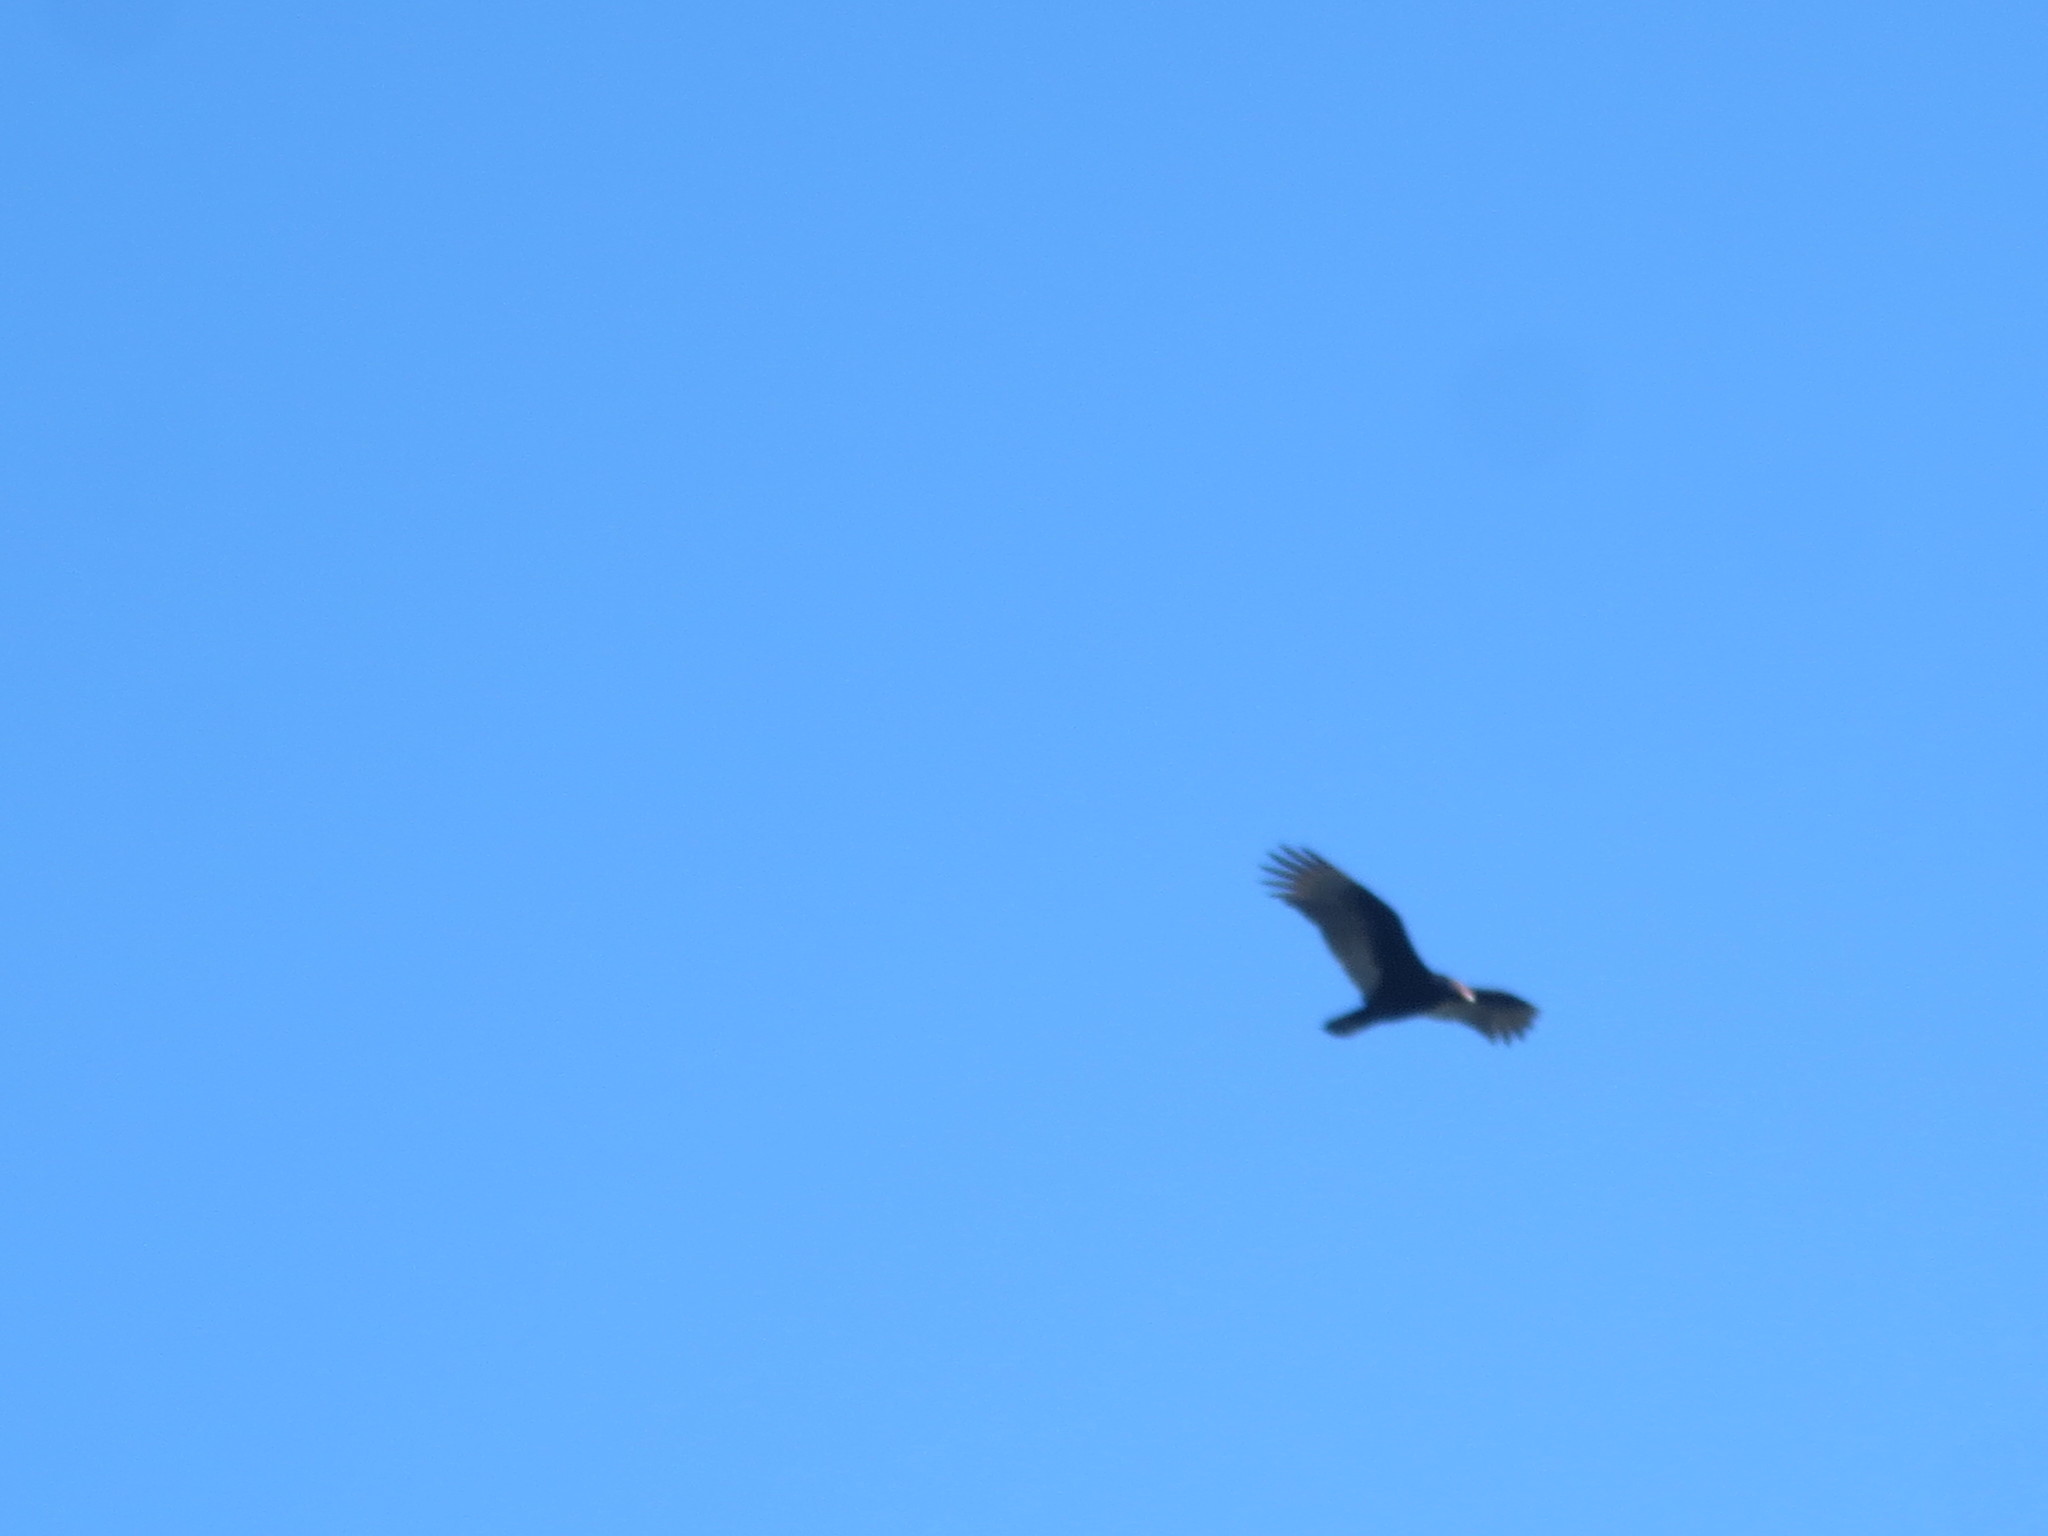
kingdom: Animalia
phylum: Chordata
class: Aves
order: Accipitriformes
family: Cathartidae
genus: Cathartes
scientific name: Cathartes aura
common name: Turkey vulture
